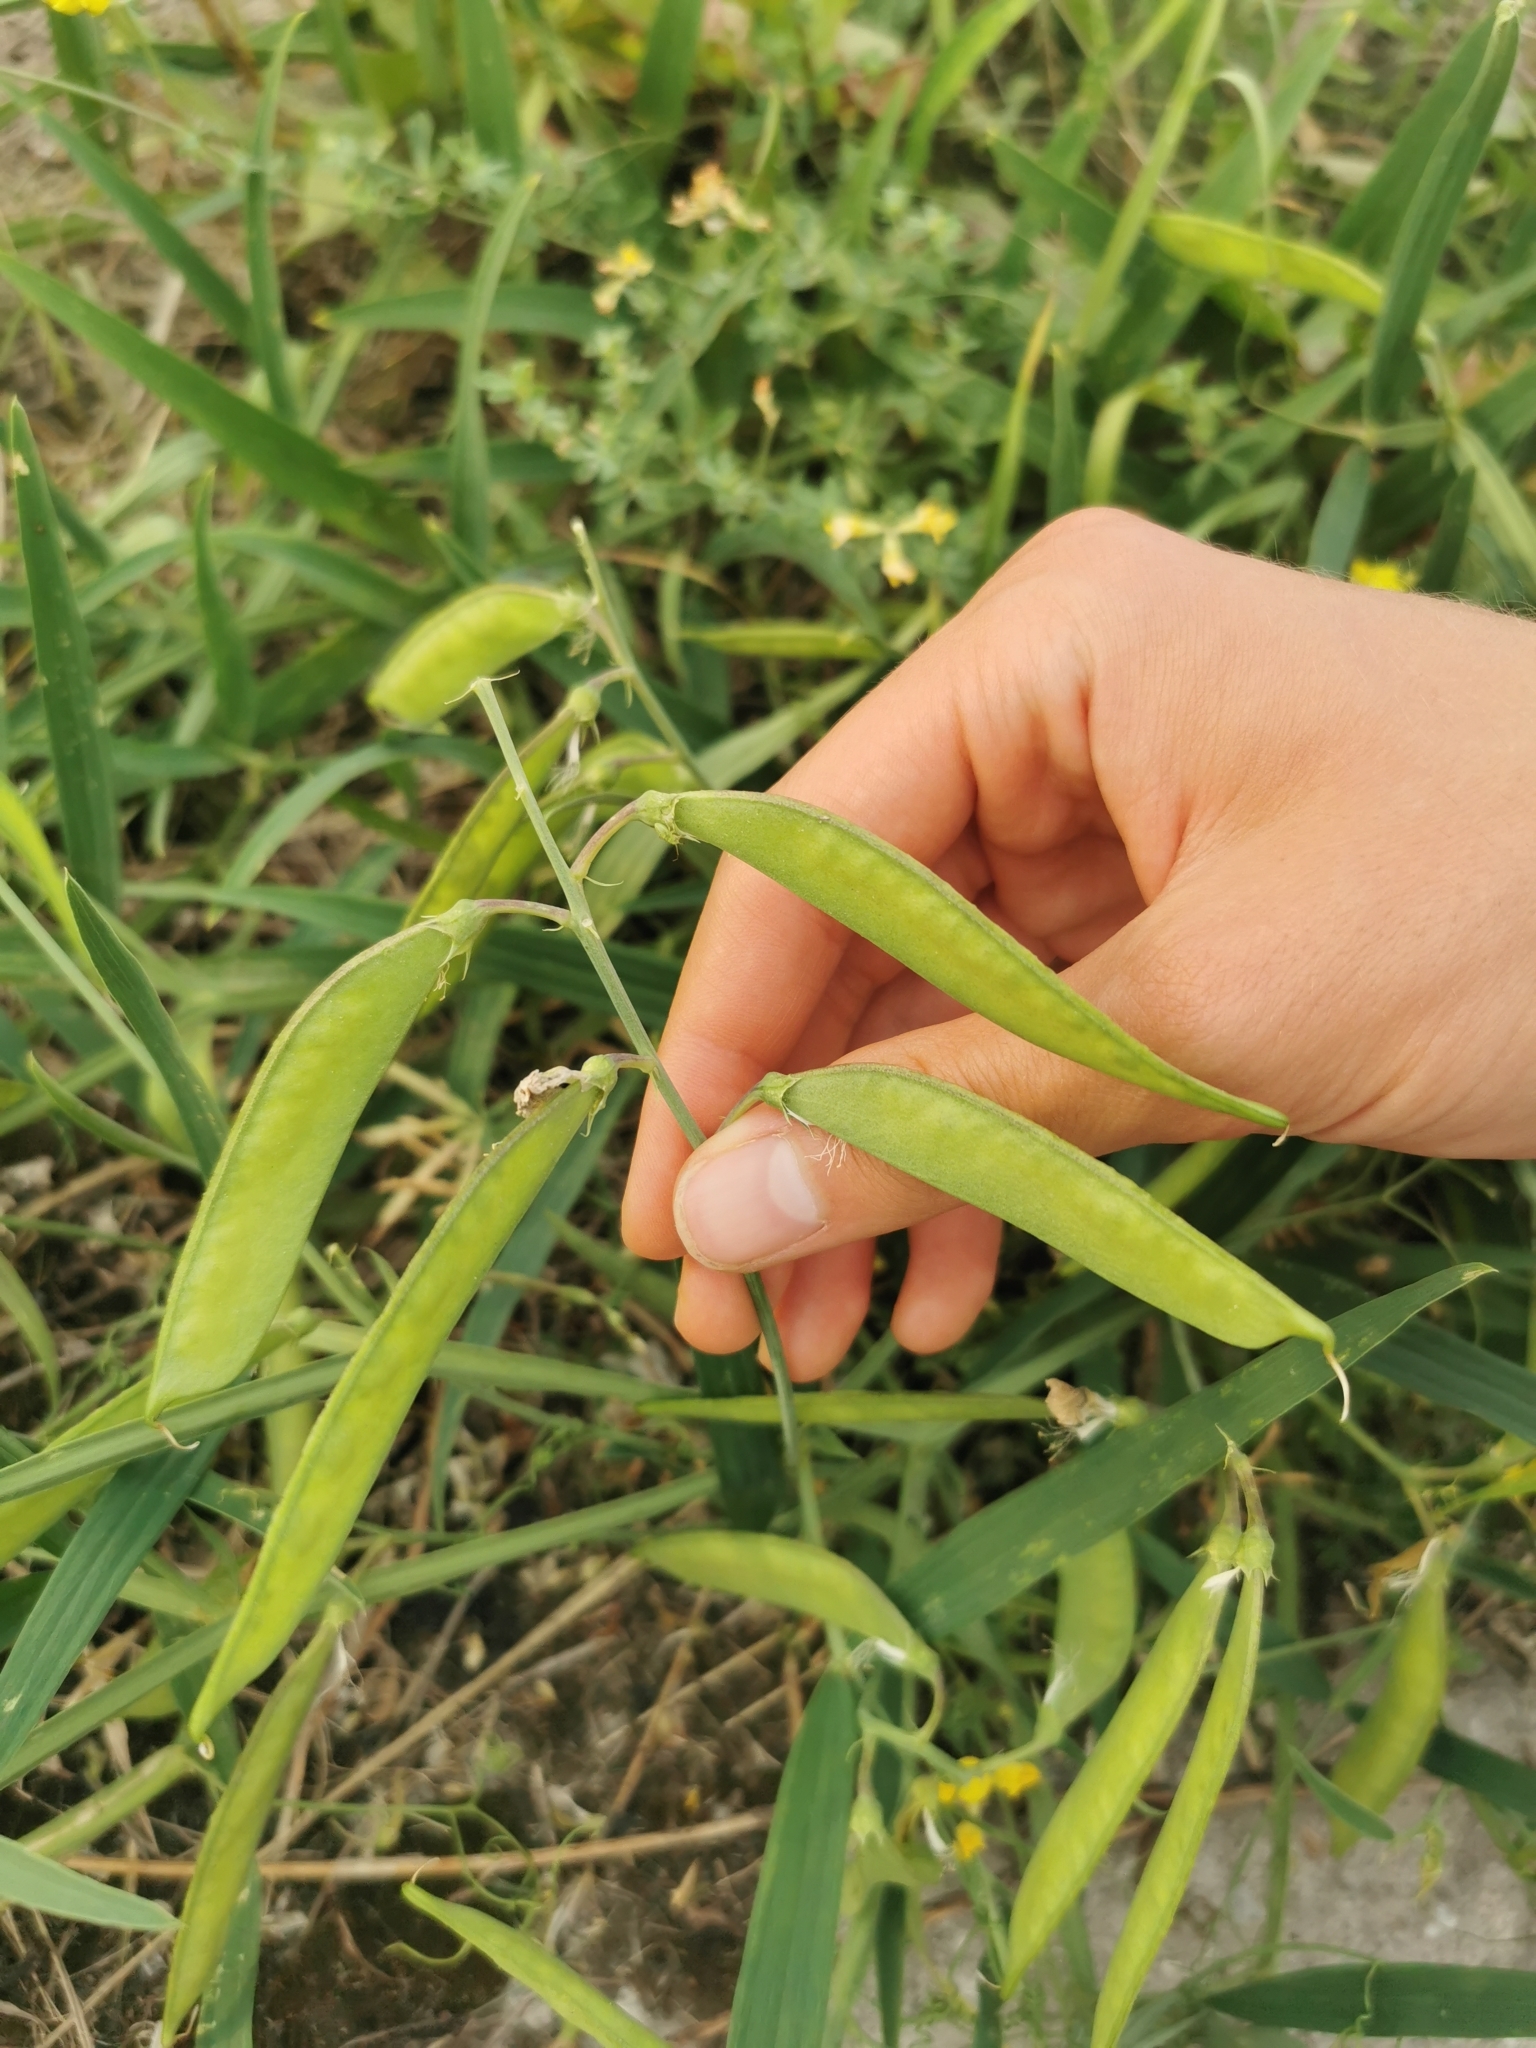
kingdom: Plantae
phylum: Tracheophyta
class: Magnoliopsida
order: Fabales
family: Fabaceae
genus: Lathyrus
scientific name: Lathyrus sylvestris
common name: Flat pea
